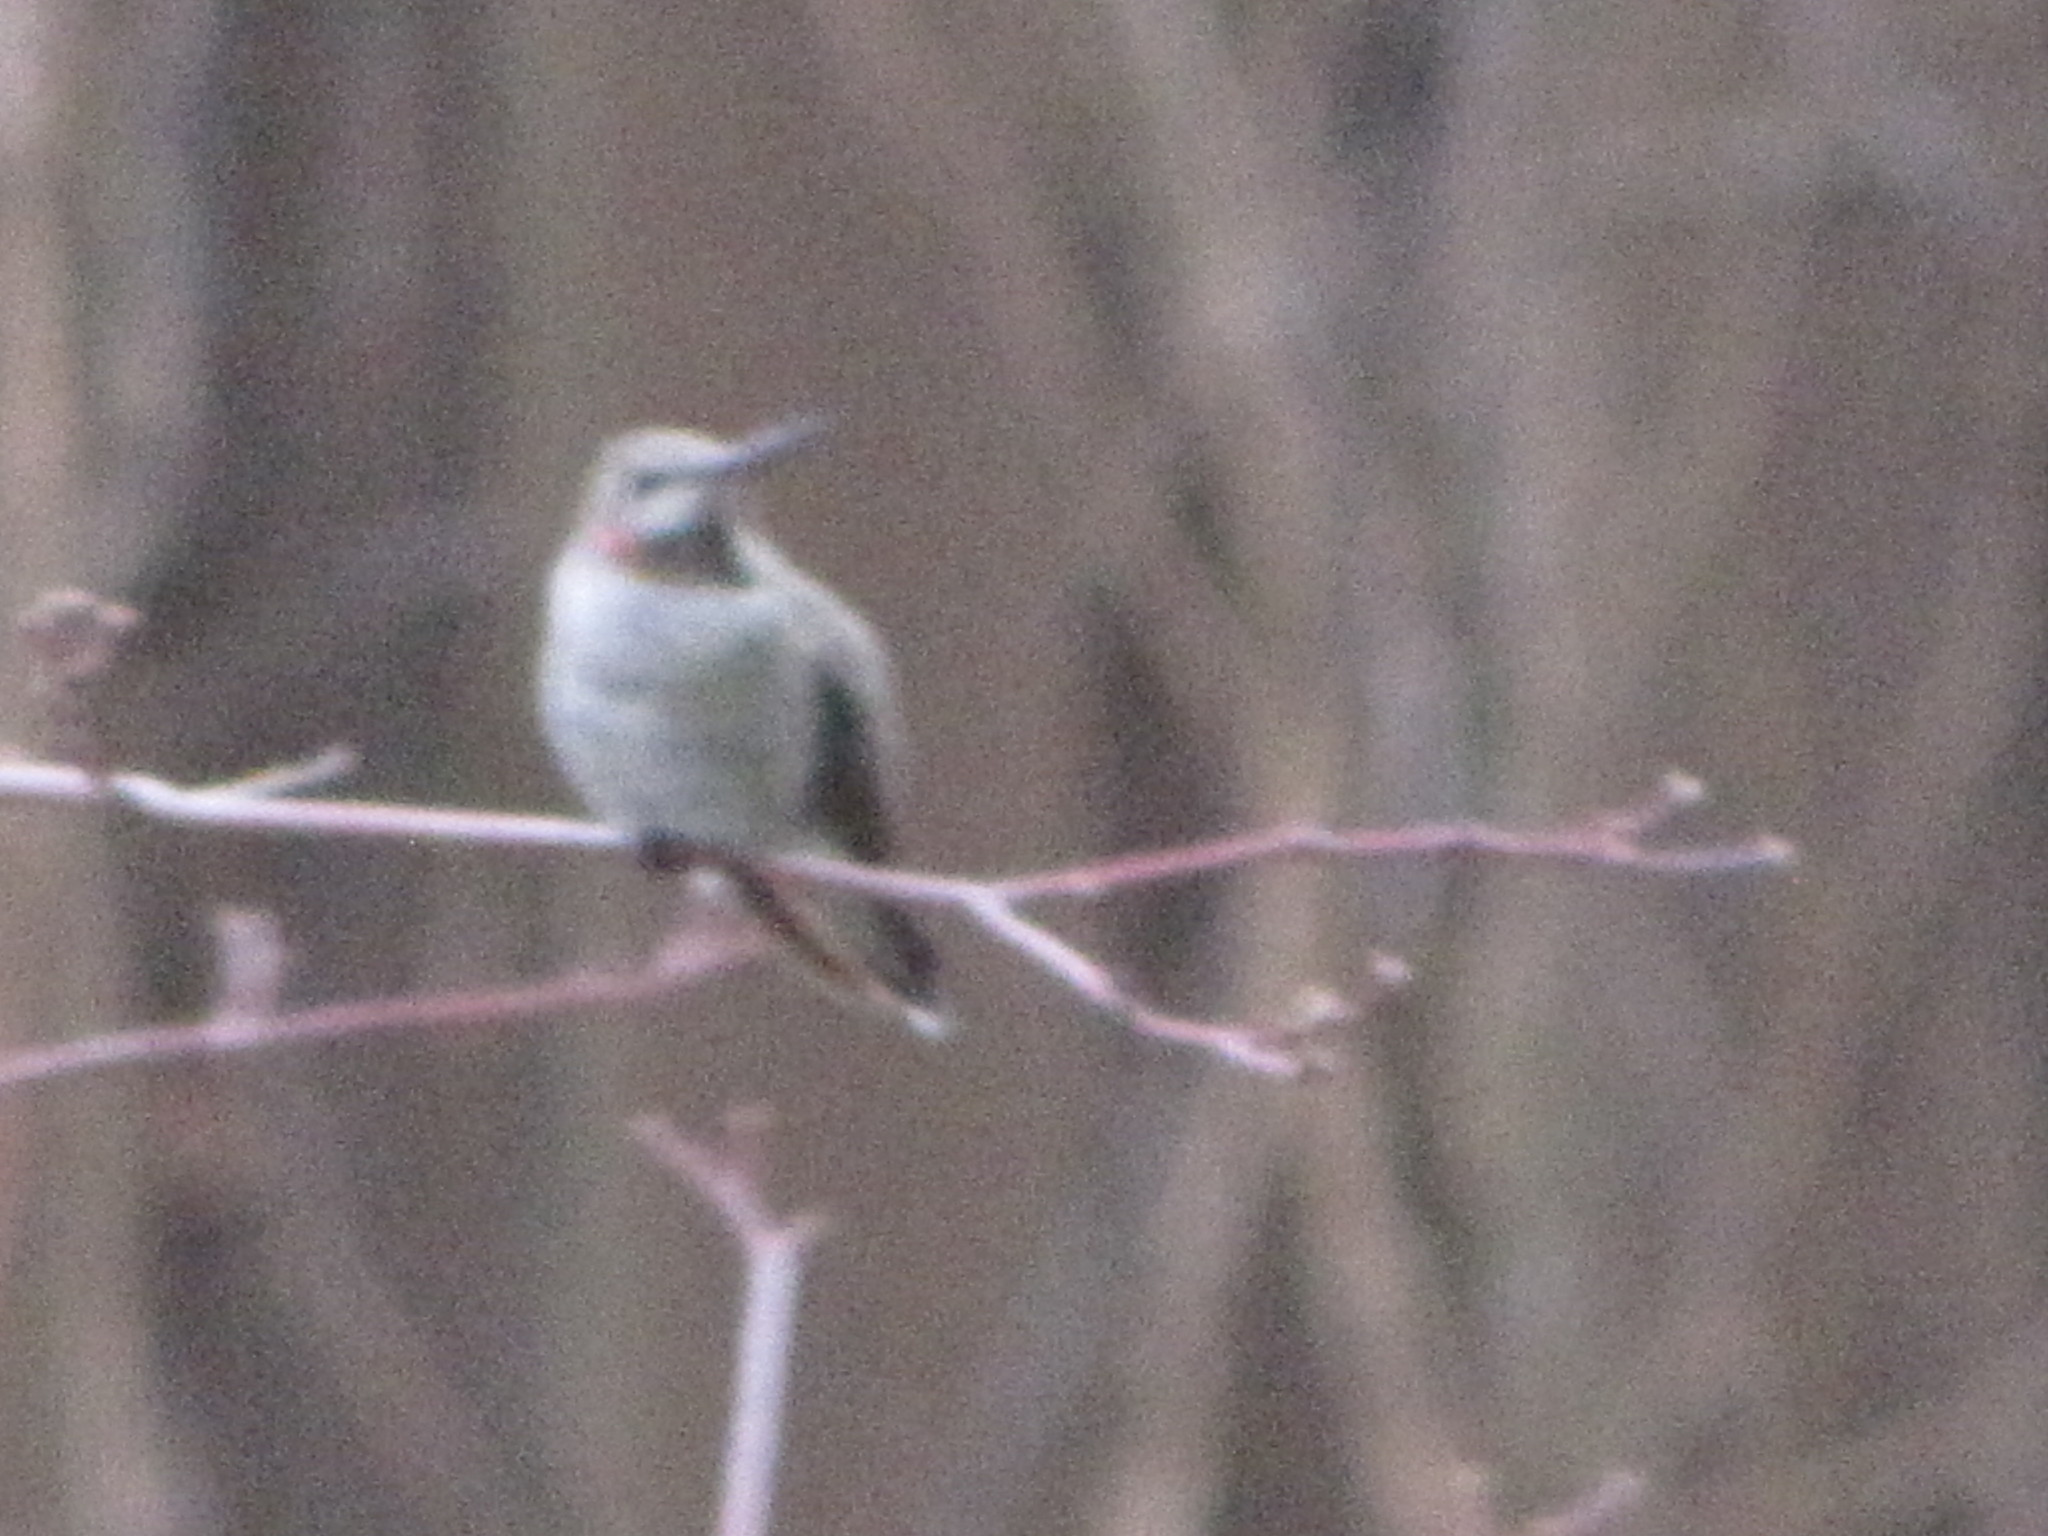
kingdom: Animalia
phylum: Chordata
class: Aves
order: Apodiformes
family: Trochilidae
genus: Calypte
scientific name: Calypte anna
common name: Anna's hummingbird
